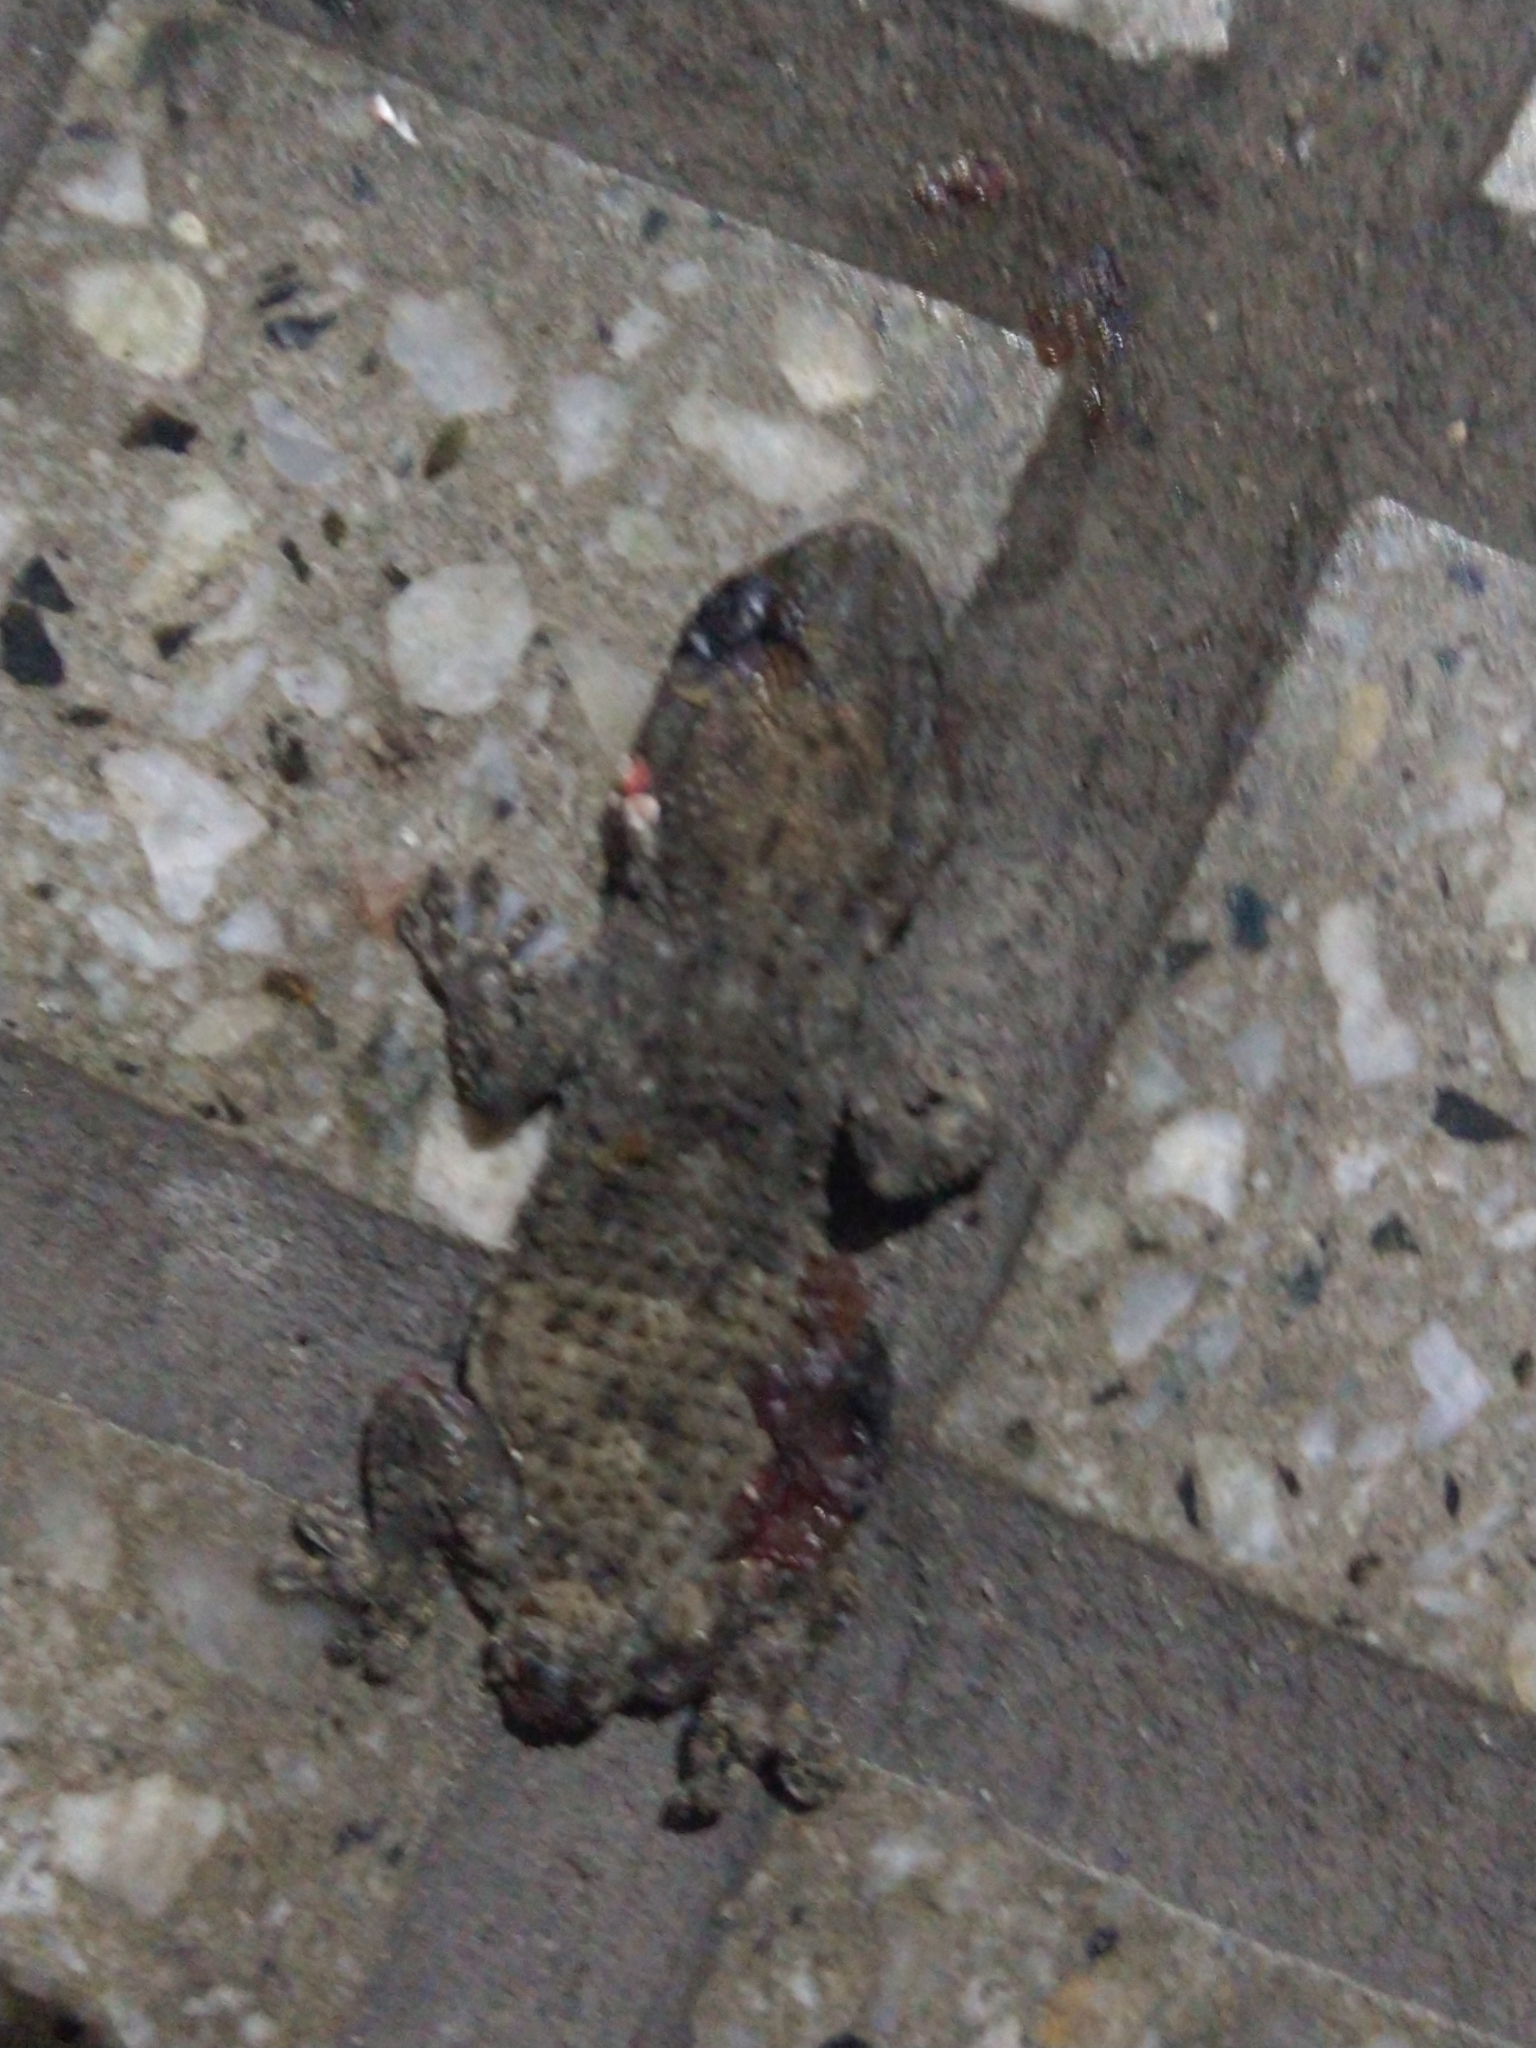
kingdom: Animalia
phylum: Chordata
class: Squamata
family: Phyllodactylidae
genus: Tarentola
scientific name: Tarentola mauritanica
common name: Moorish gecko
